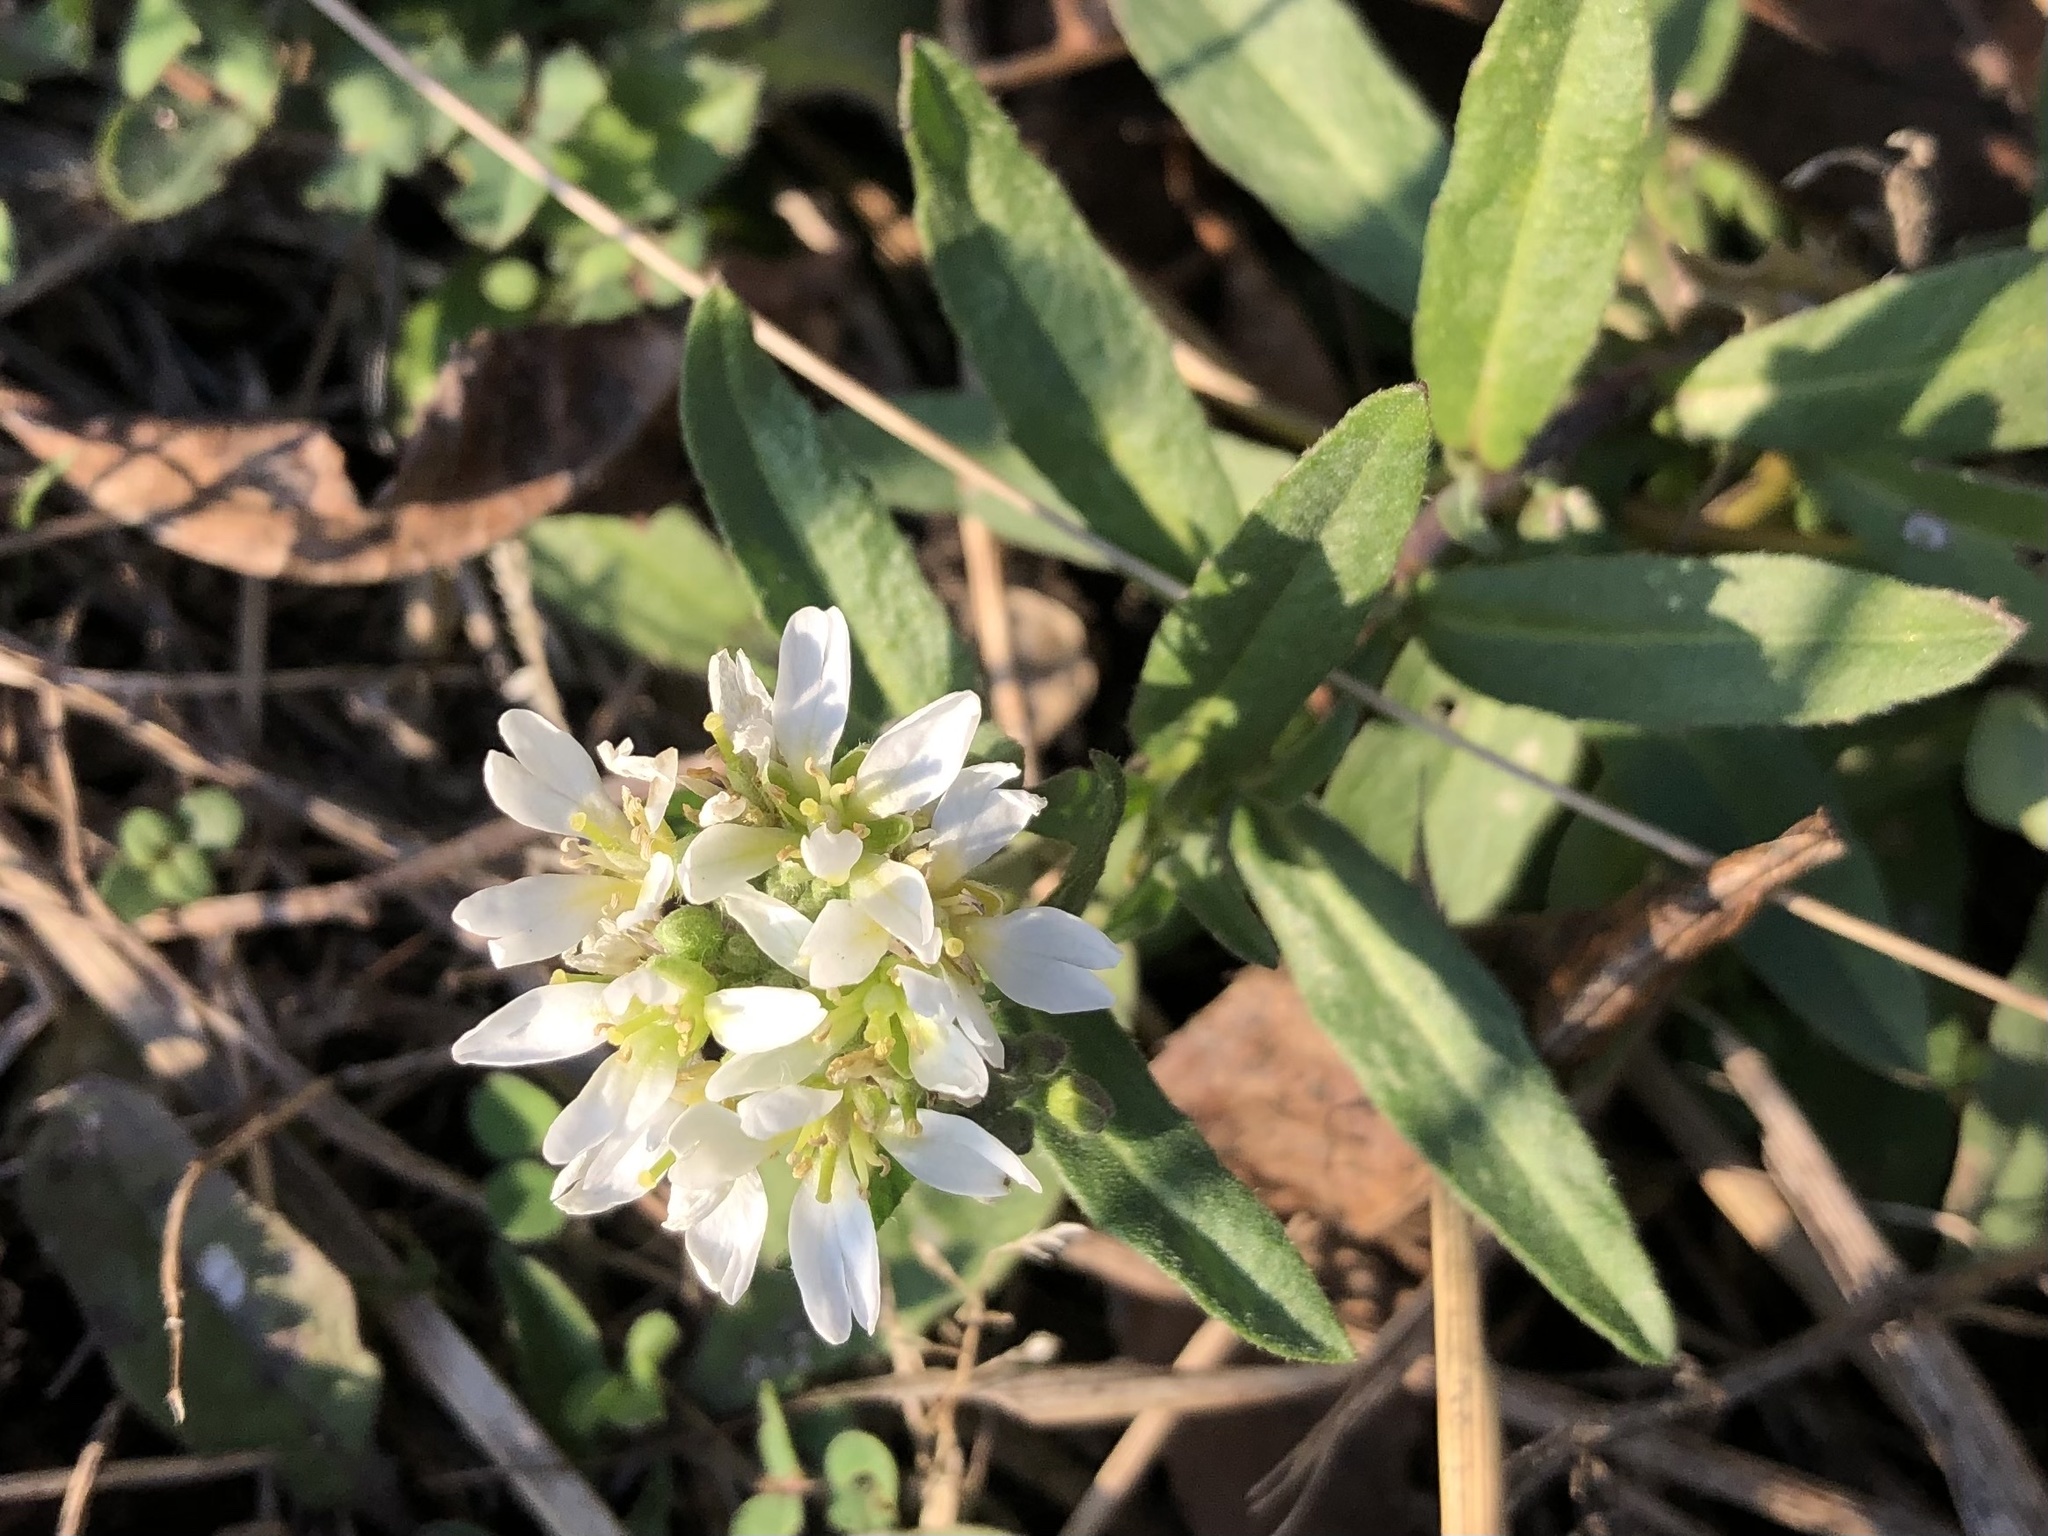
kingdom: Plantae
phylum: Tracheophyta
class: Magnoliopsida
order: Brassicales
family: Brassicaceae
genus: Berteroa
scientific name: Berteroa incana
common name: Hoary alison
